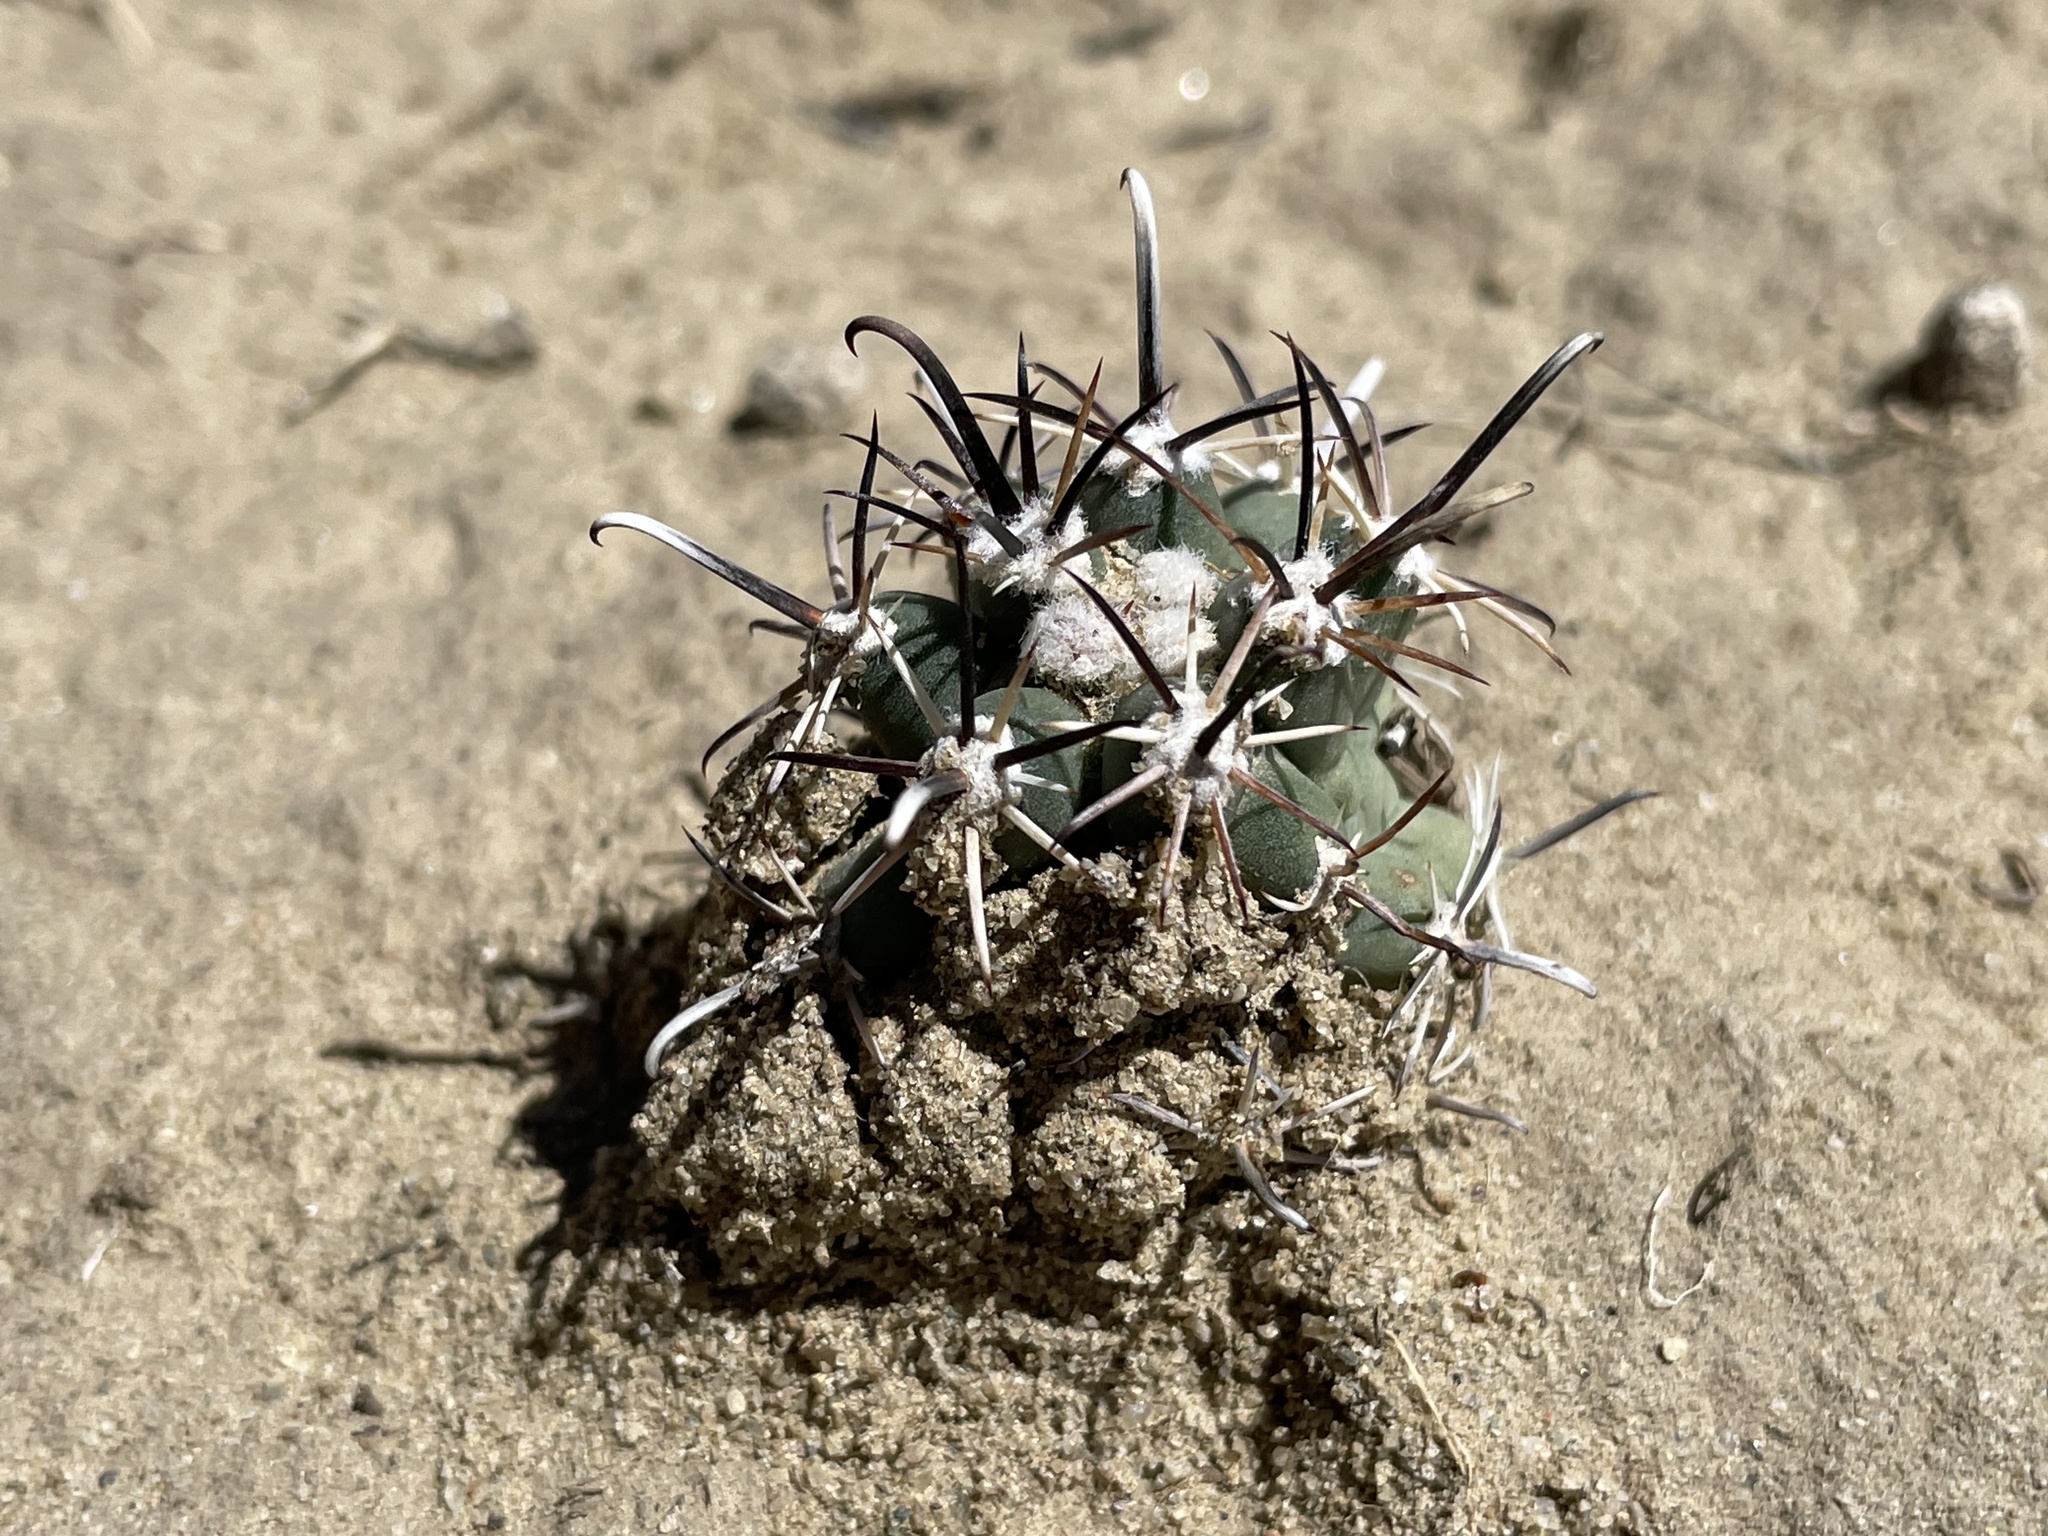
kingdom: Plantae
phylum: Tracheophyta
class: Magnoliopsida
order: Caryophyllales
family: Cactaceae
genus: Sclerocactus
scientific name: Sclerocactus cloverae
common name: Clover's eagle-claw cactus
